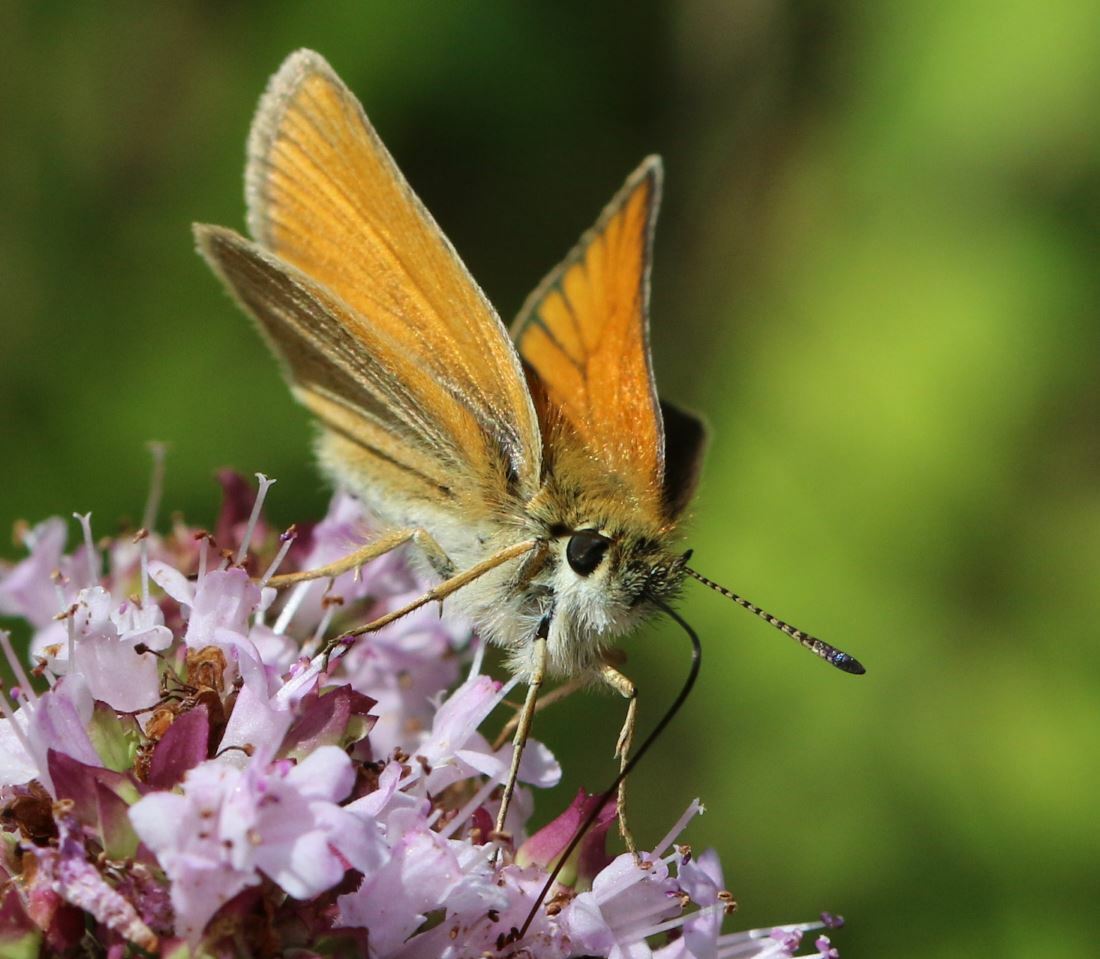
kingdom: Animalia
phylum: Arthropoda
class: Insecta
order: Lepidoptera
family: Hesperiidae
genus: Thymelicus
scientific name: Thymelicus lineola
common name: Essex skipper
